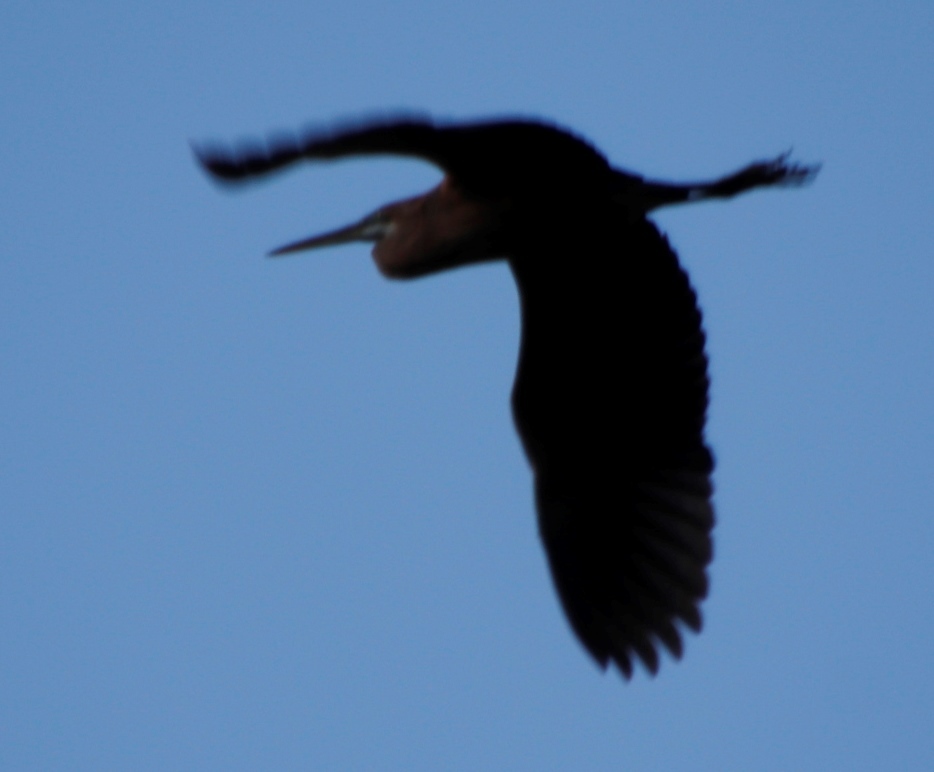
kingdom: Animalia
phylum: Chordata
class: Aves
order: Pelecaniformes
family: Ardeidae
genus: Ardea
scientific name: Ardea purpurea
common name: Purple heron
